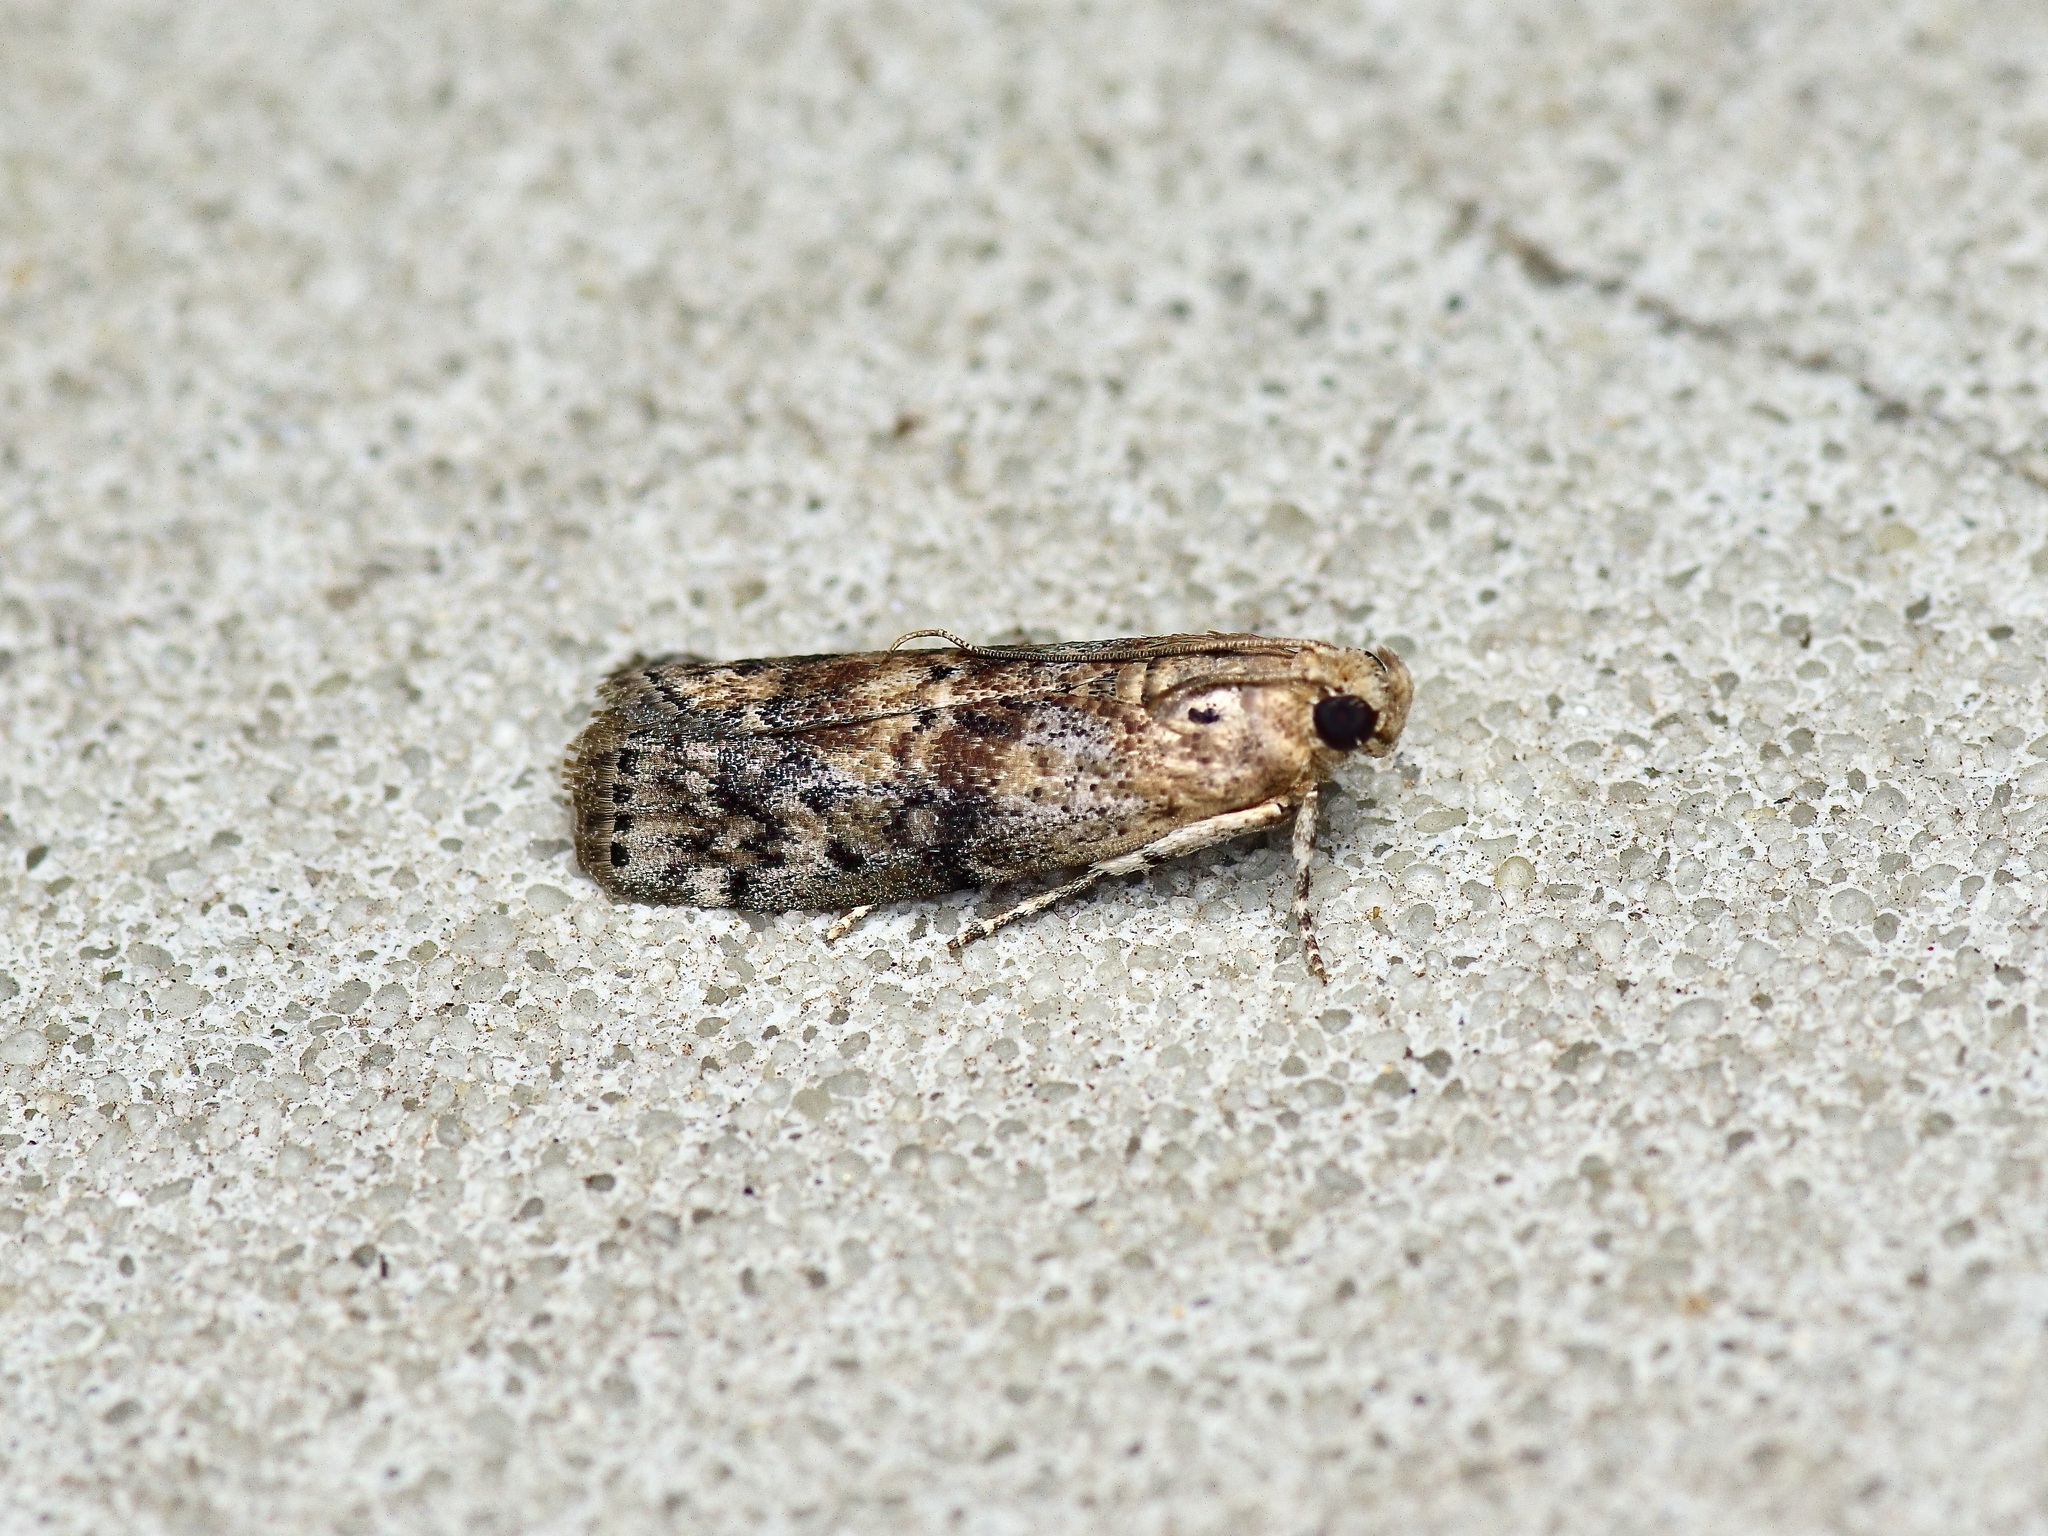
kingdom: Animalia
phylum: Arthropoda
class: Insecta
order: Lepidoptera
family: Pyralidae
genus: Sciota
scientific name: Sciota celtidella
